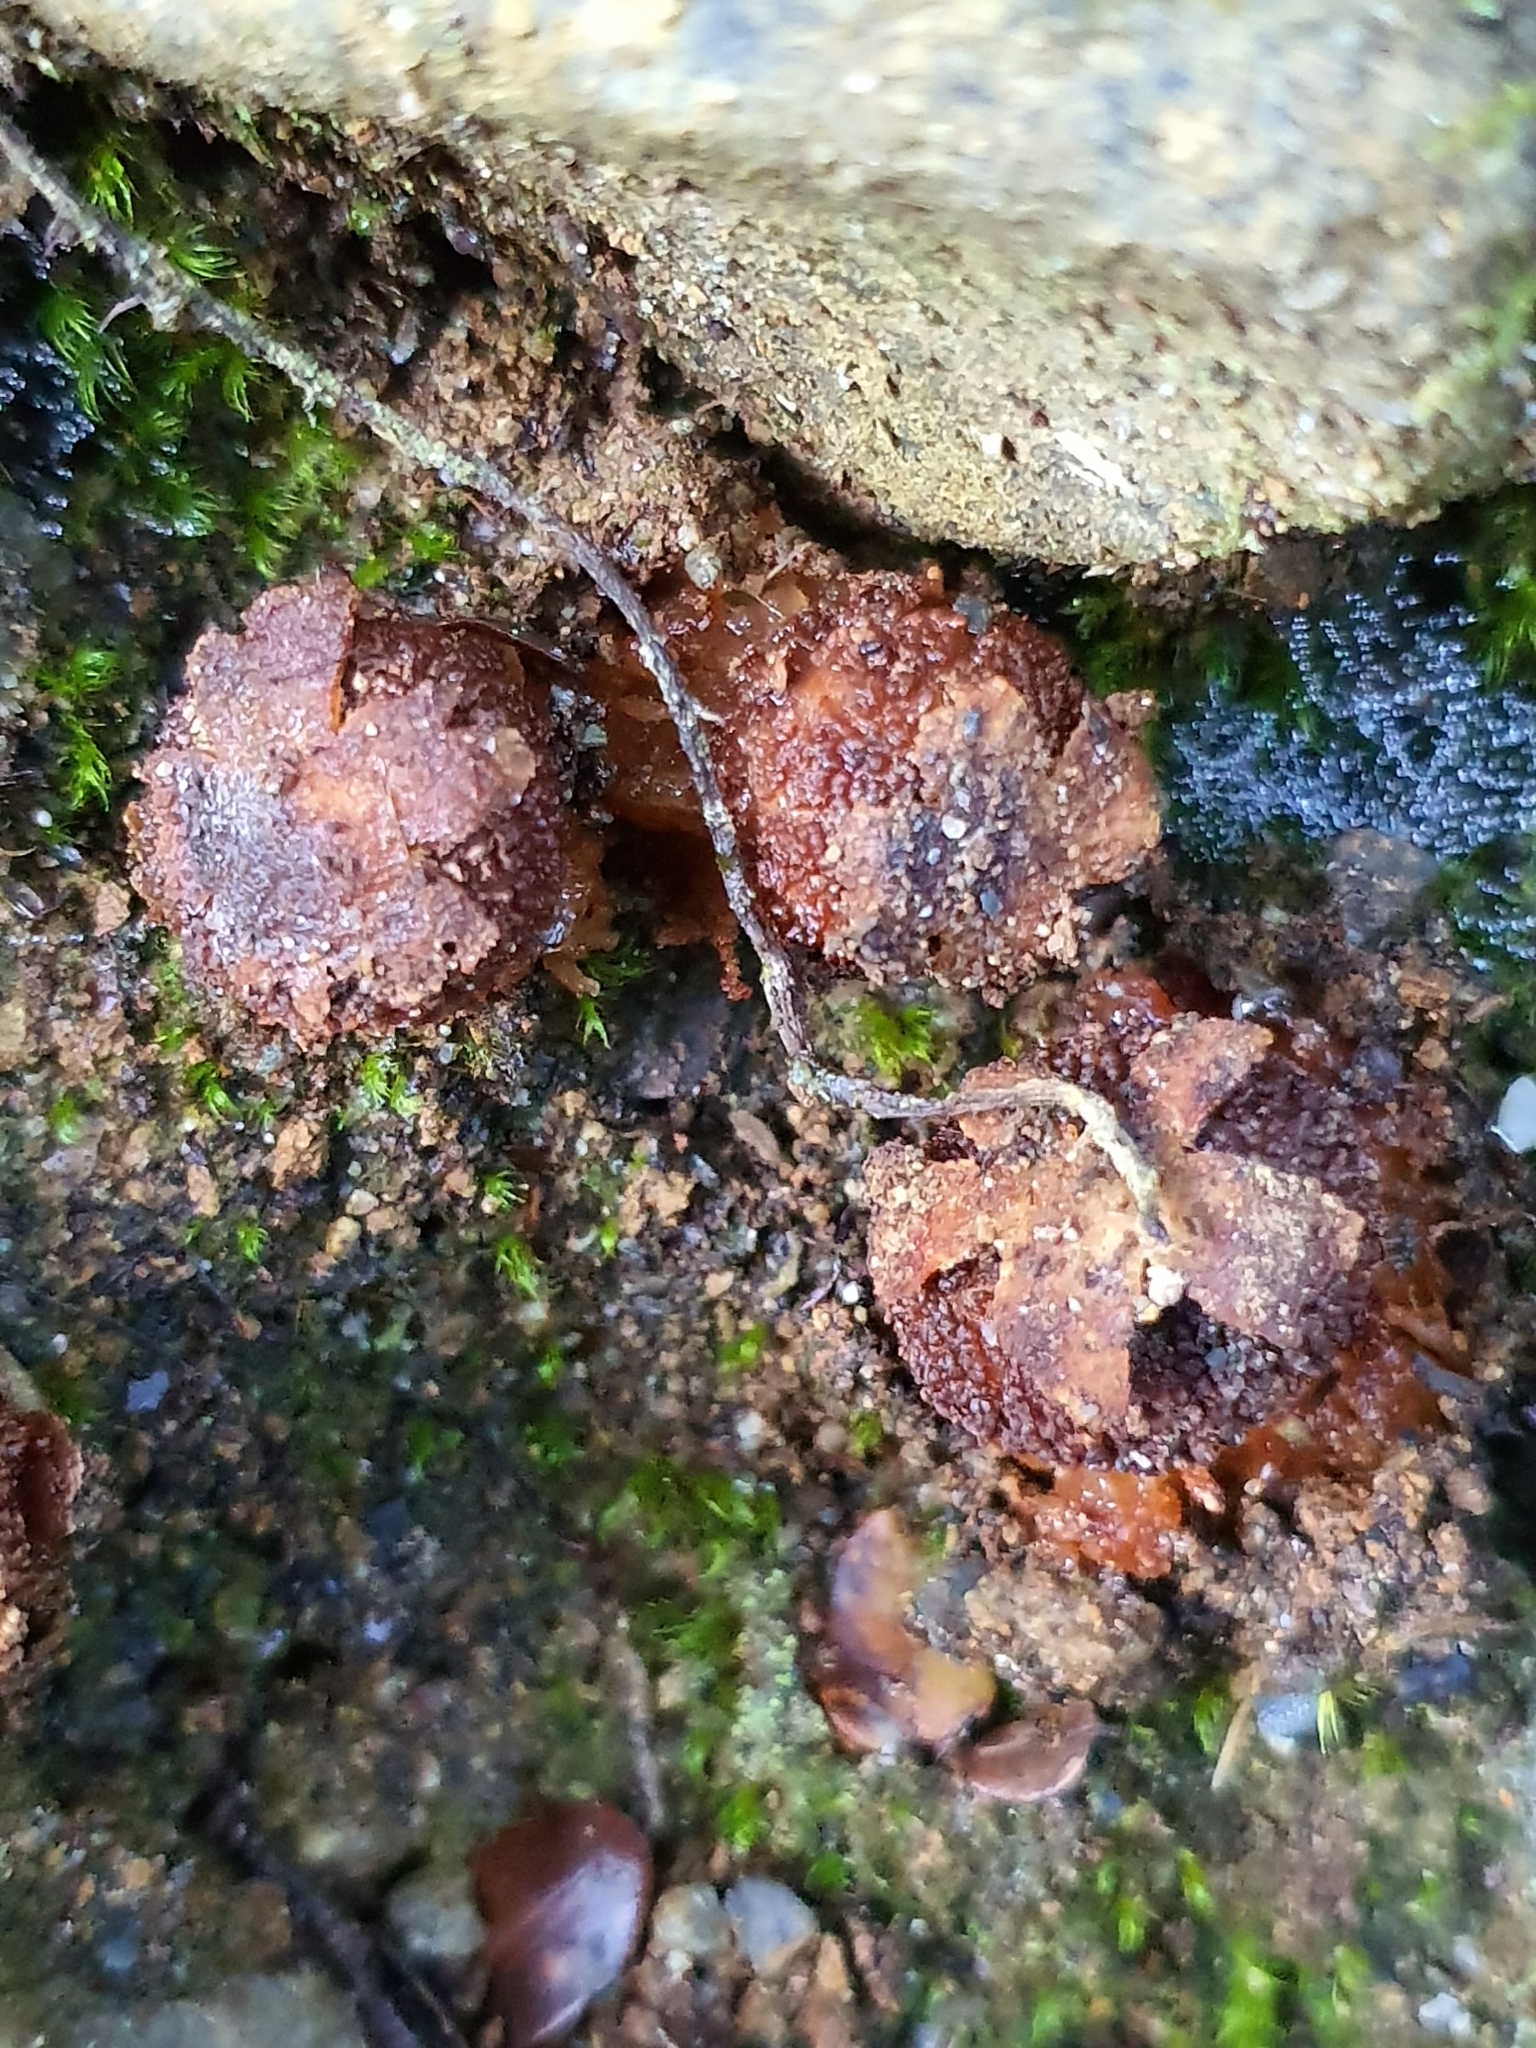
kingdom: Fungi
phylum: Basidiomycota
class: Agaricomycetes
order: Boletales
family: Calostomataceae
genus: Calostoma
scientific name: Calostoma rodwayi
